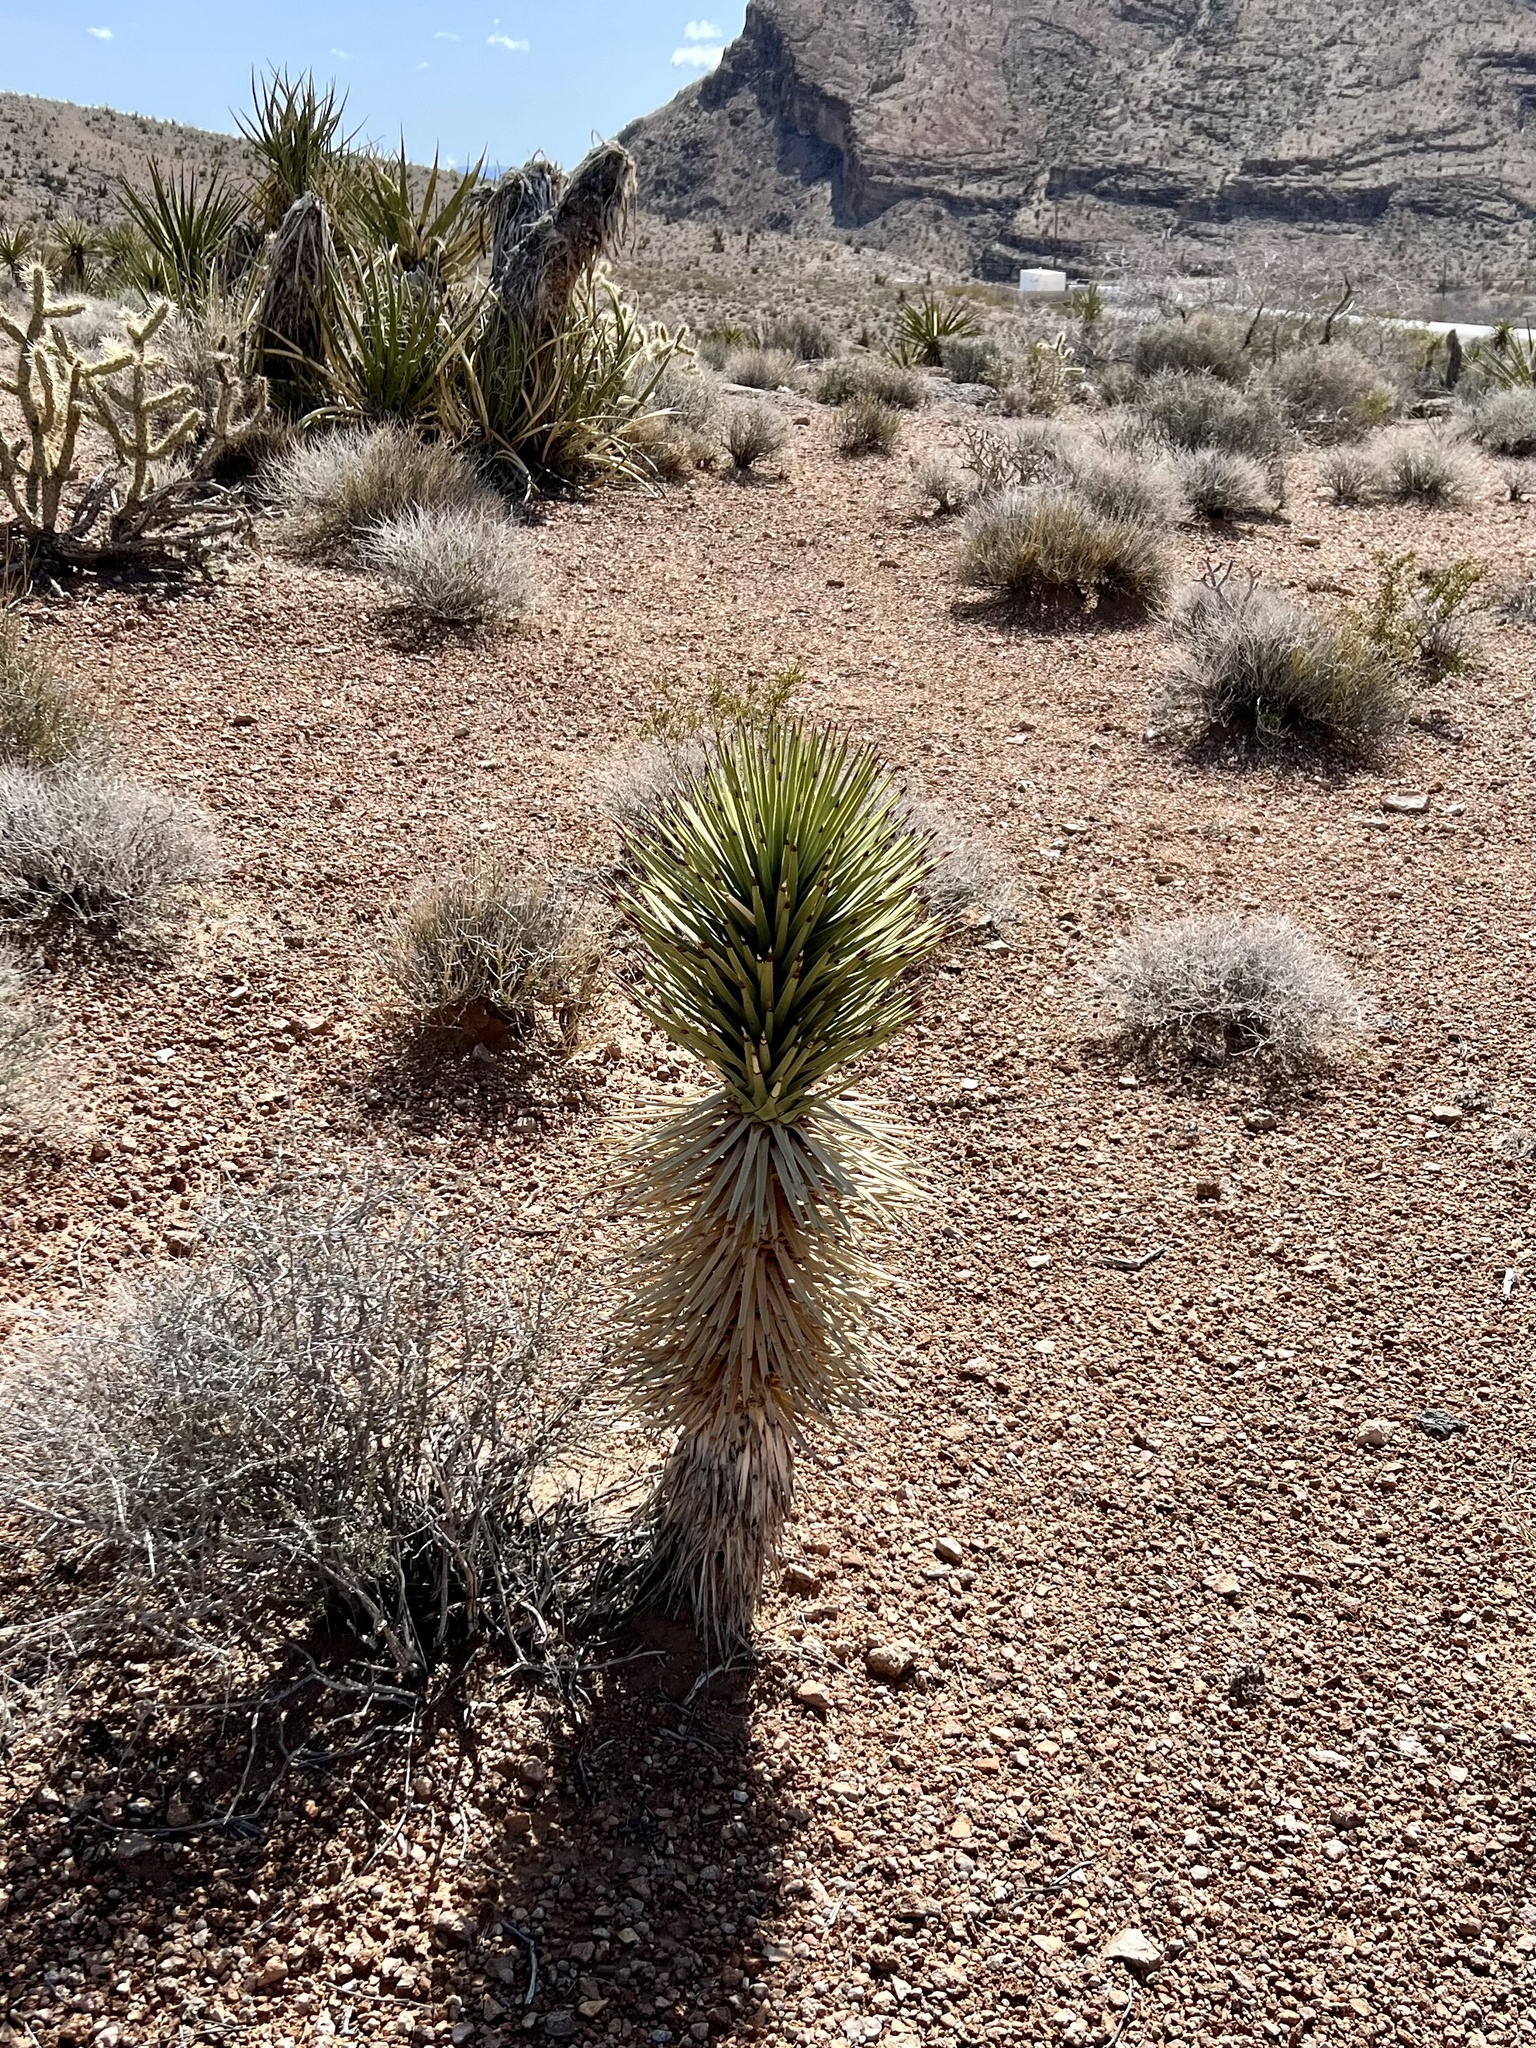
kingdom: Plantae
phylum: Tracheophyta
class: Liliopsida
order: Asparagales
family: Asparagaceae
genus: Yucca
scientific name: Yucca brevifolia
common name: Joshua tree
